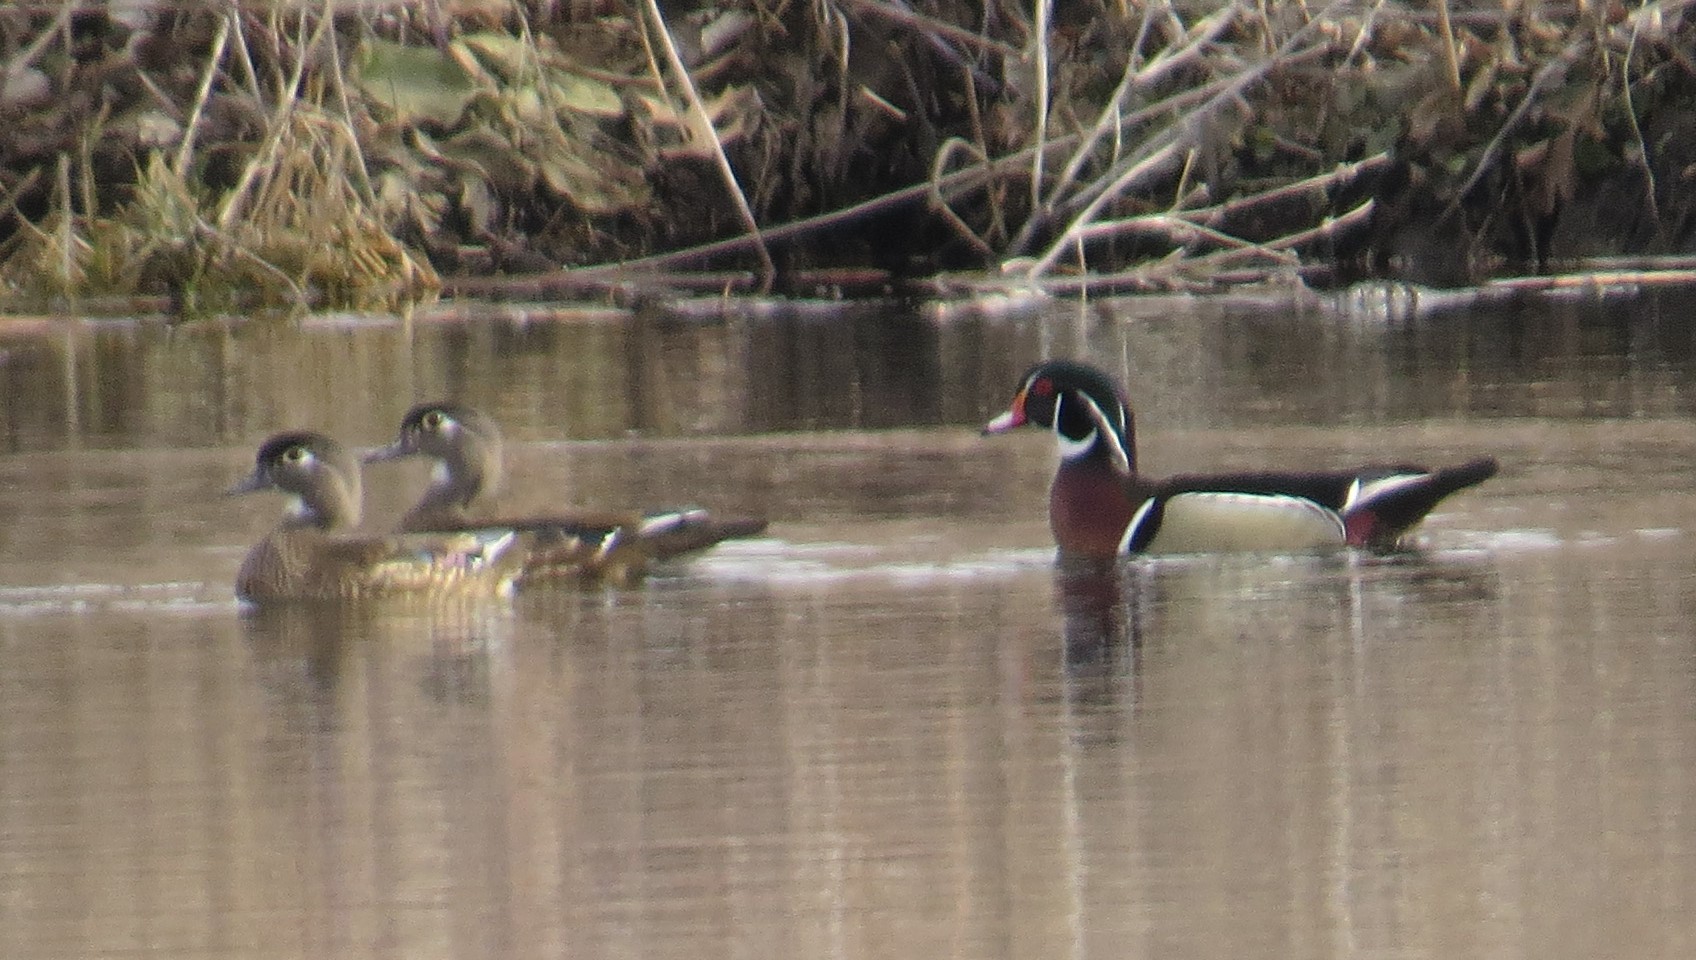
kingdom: Animalia
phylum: Chordata
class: Aves
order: Anseriformes
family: Anatidae
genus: Aix
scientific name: Aix sponsa
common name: Wood duck
